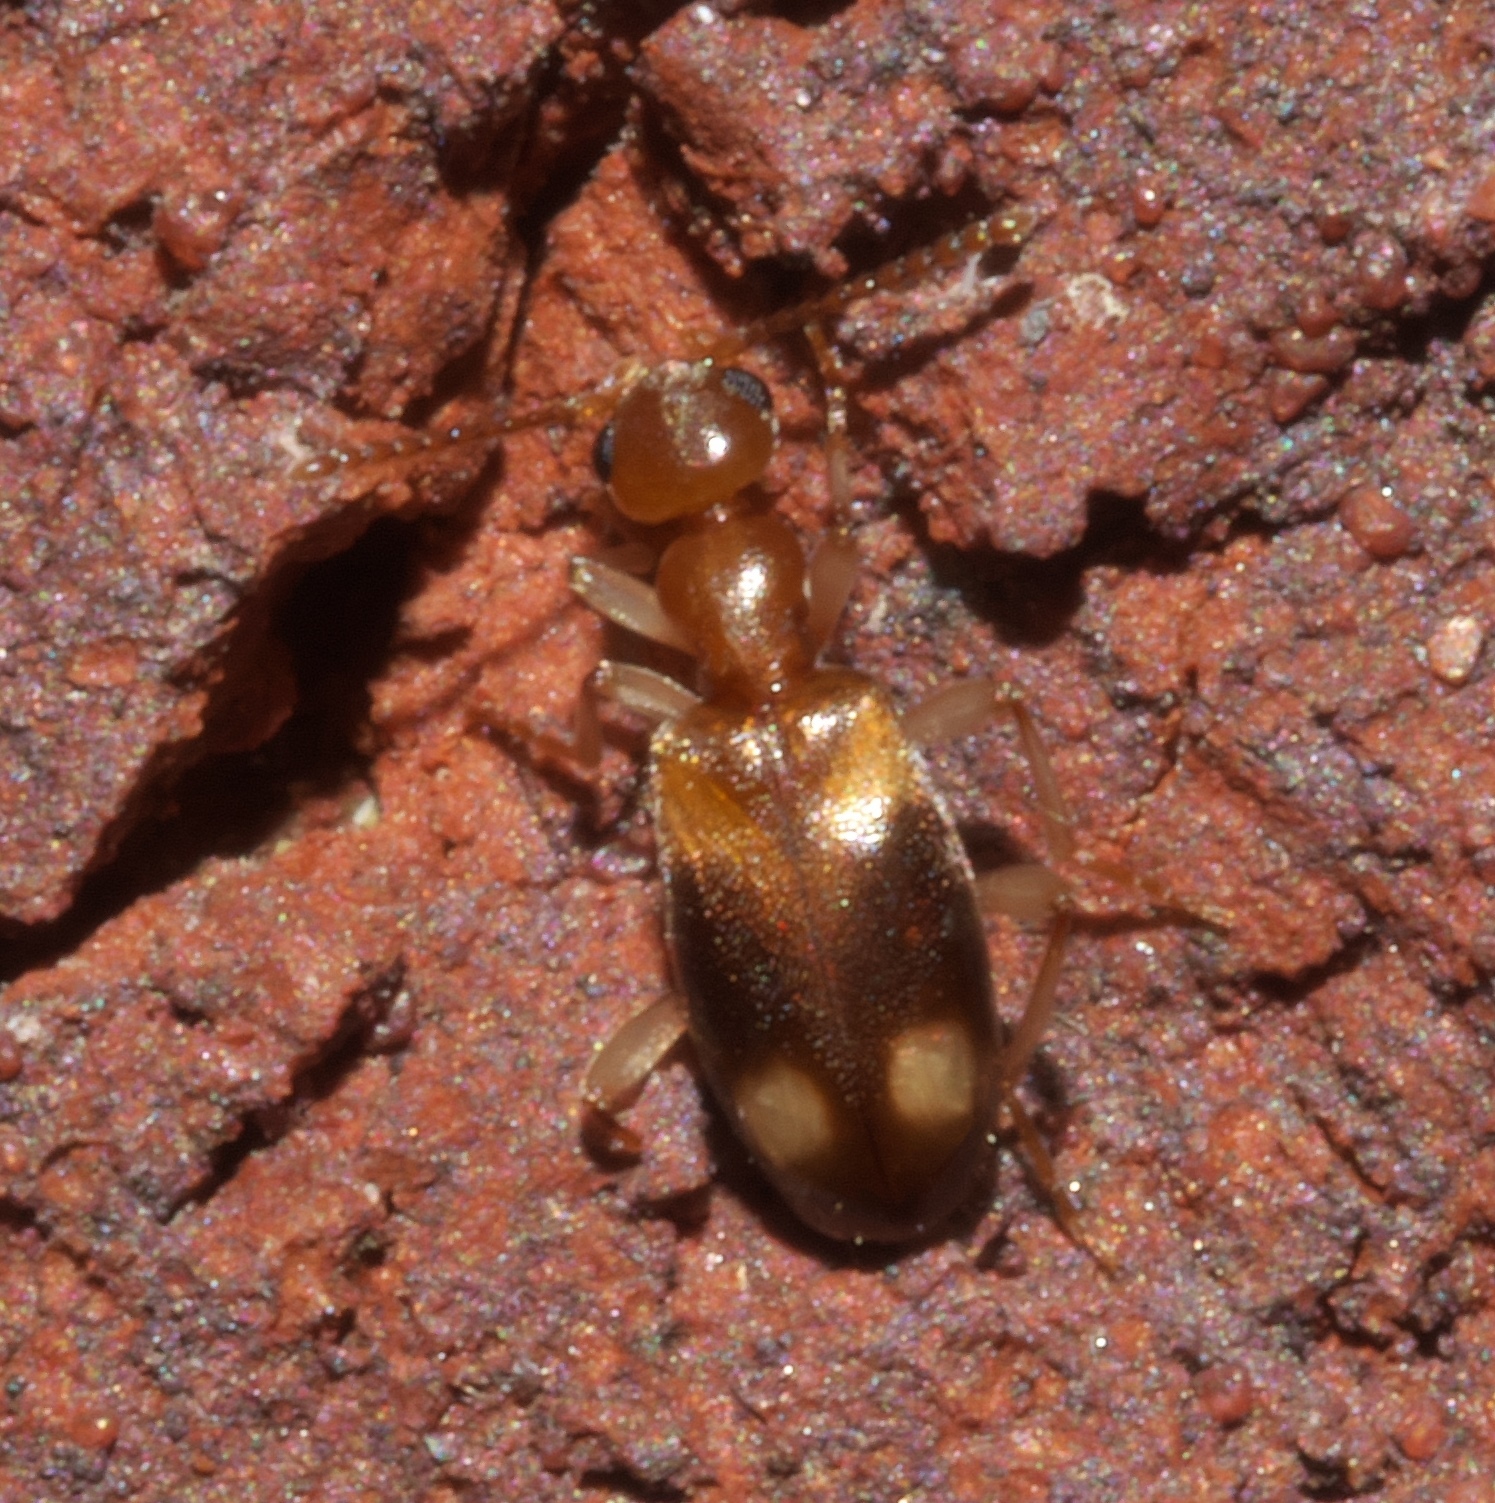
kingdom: Animalia
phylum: Arthropoda
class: Insecta
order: Coleoptera
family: Anthicidae
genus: Stricticollis
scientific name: Stricticollis tobias
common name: Two-dotted ant-like flower beetle
